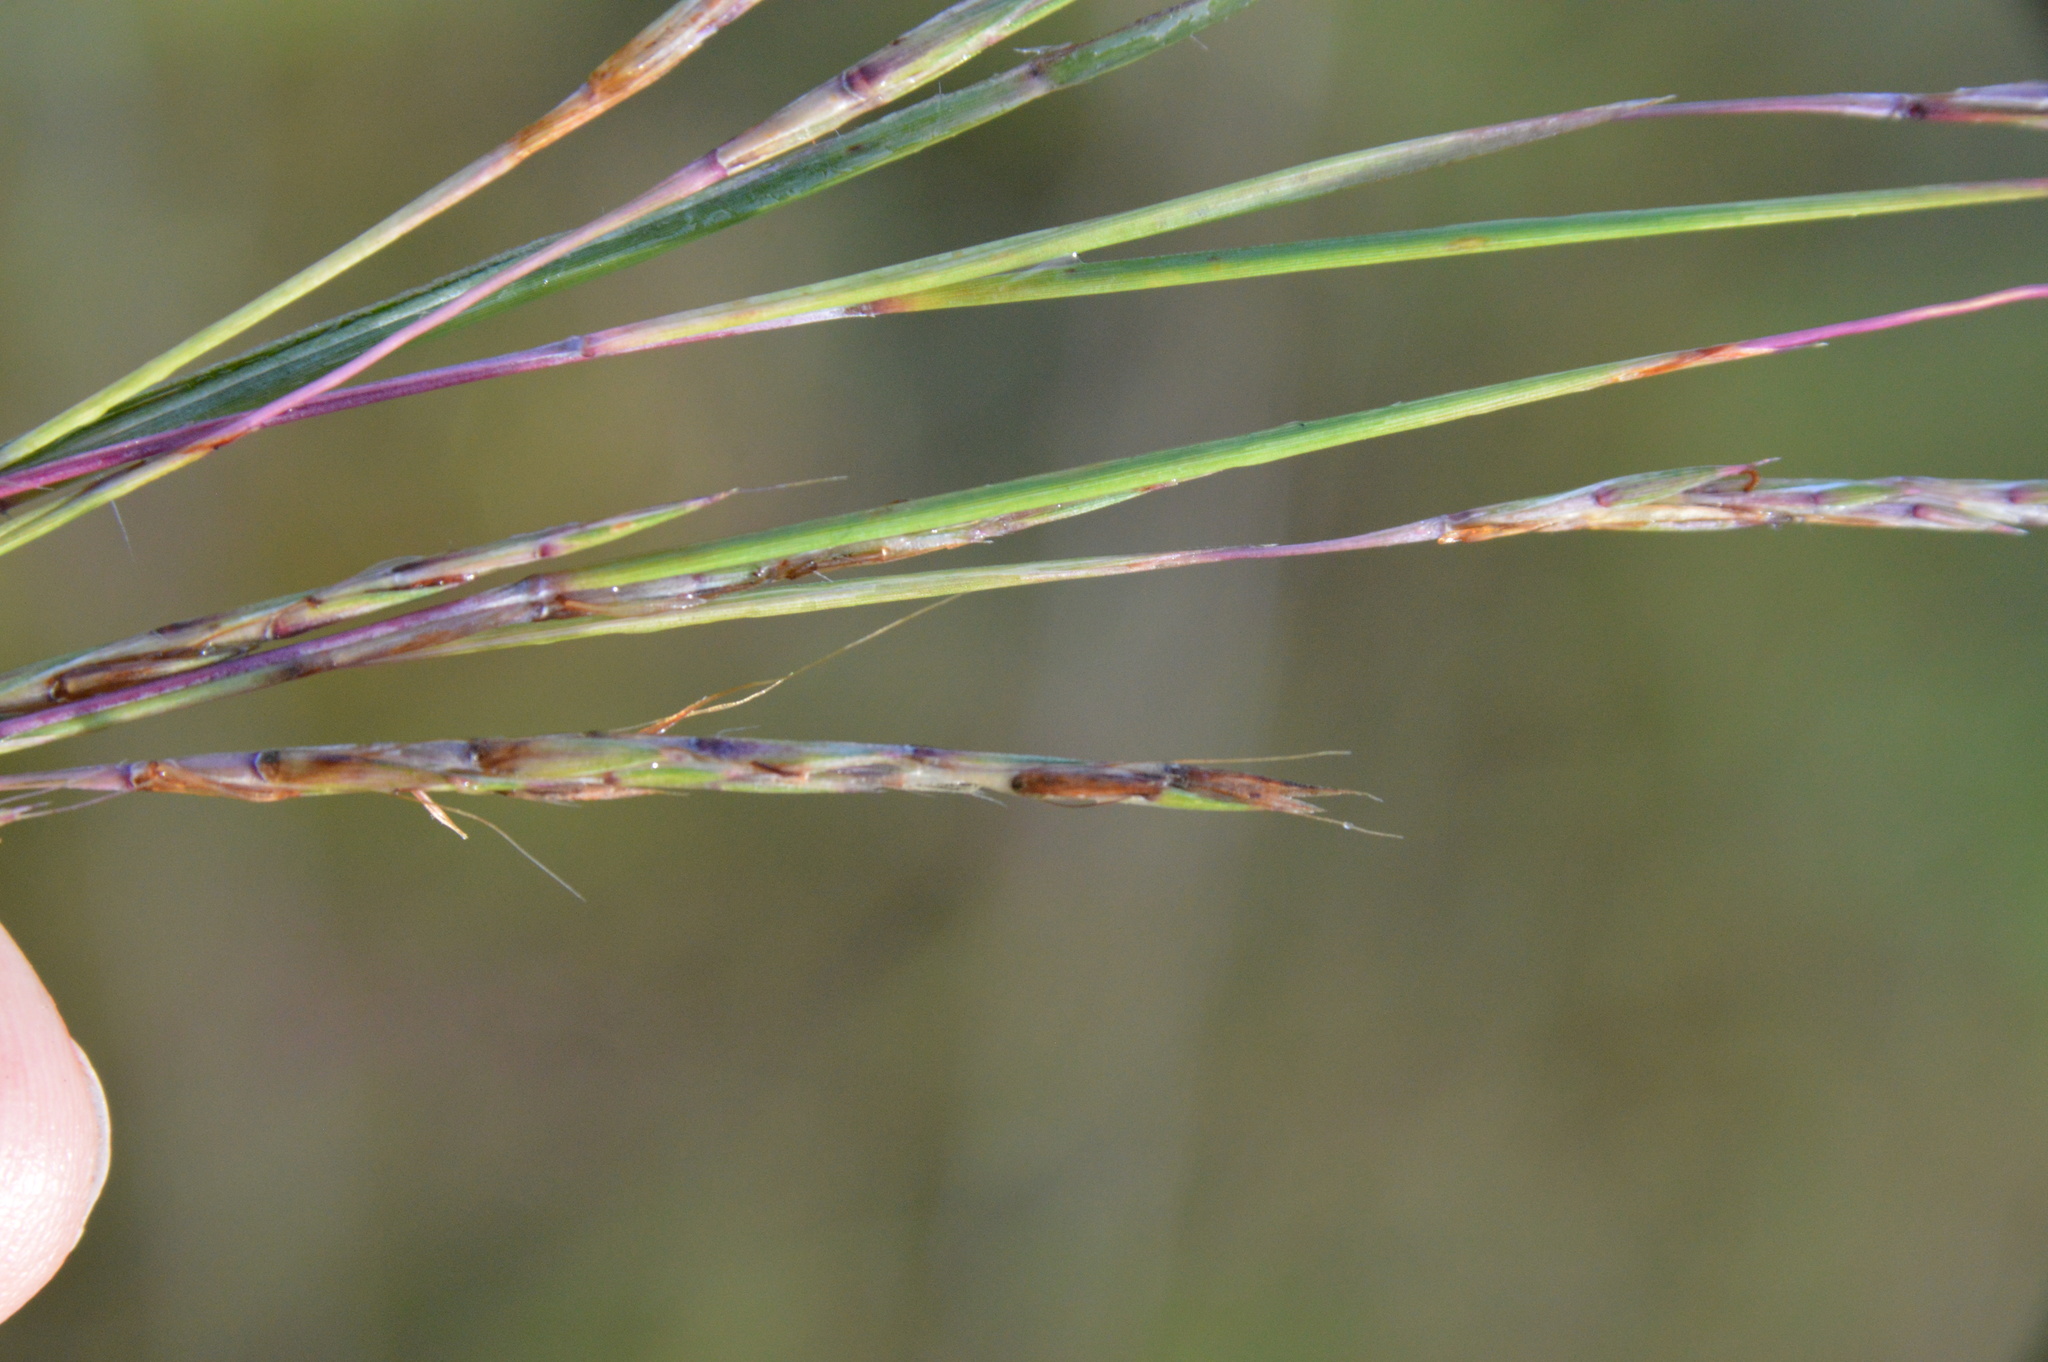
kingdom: Plantae
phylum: Tracheophyta
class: Liliopsida
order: Poales
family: Poaceae
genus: Schizachyrium
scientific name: Schizachyrium scoparium
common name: Little bluestem
